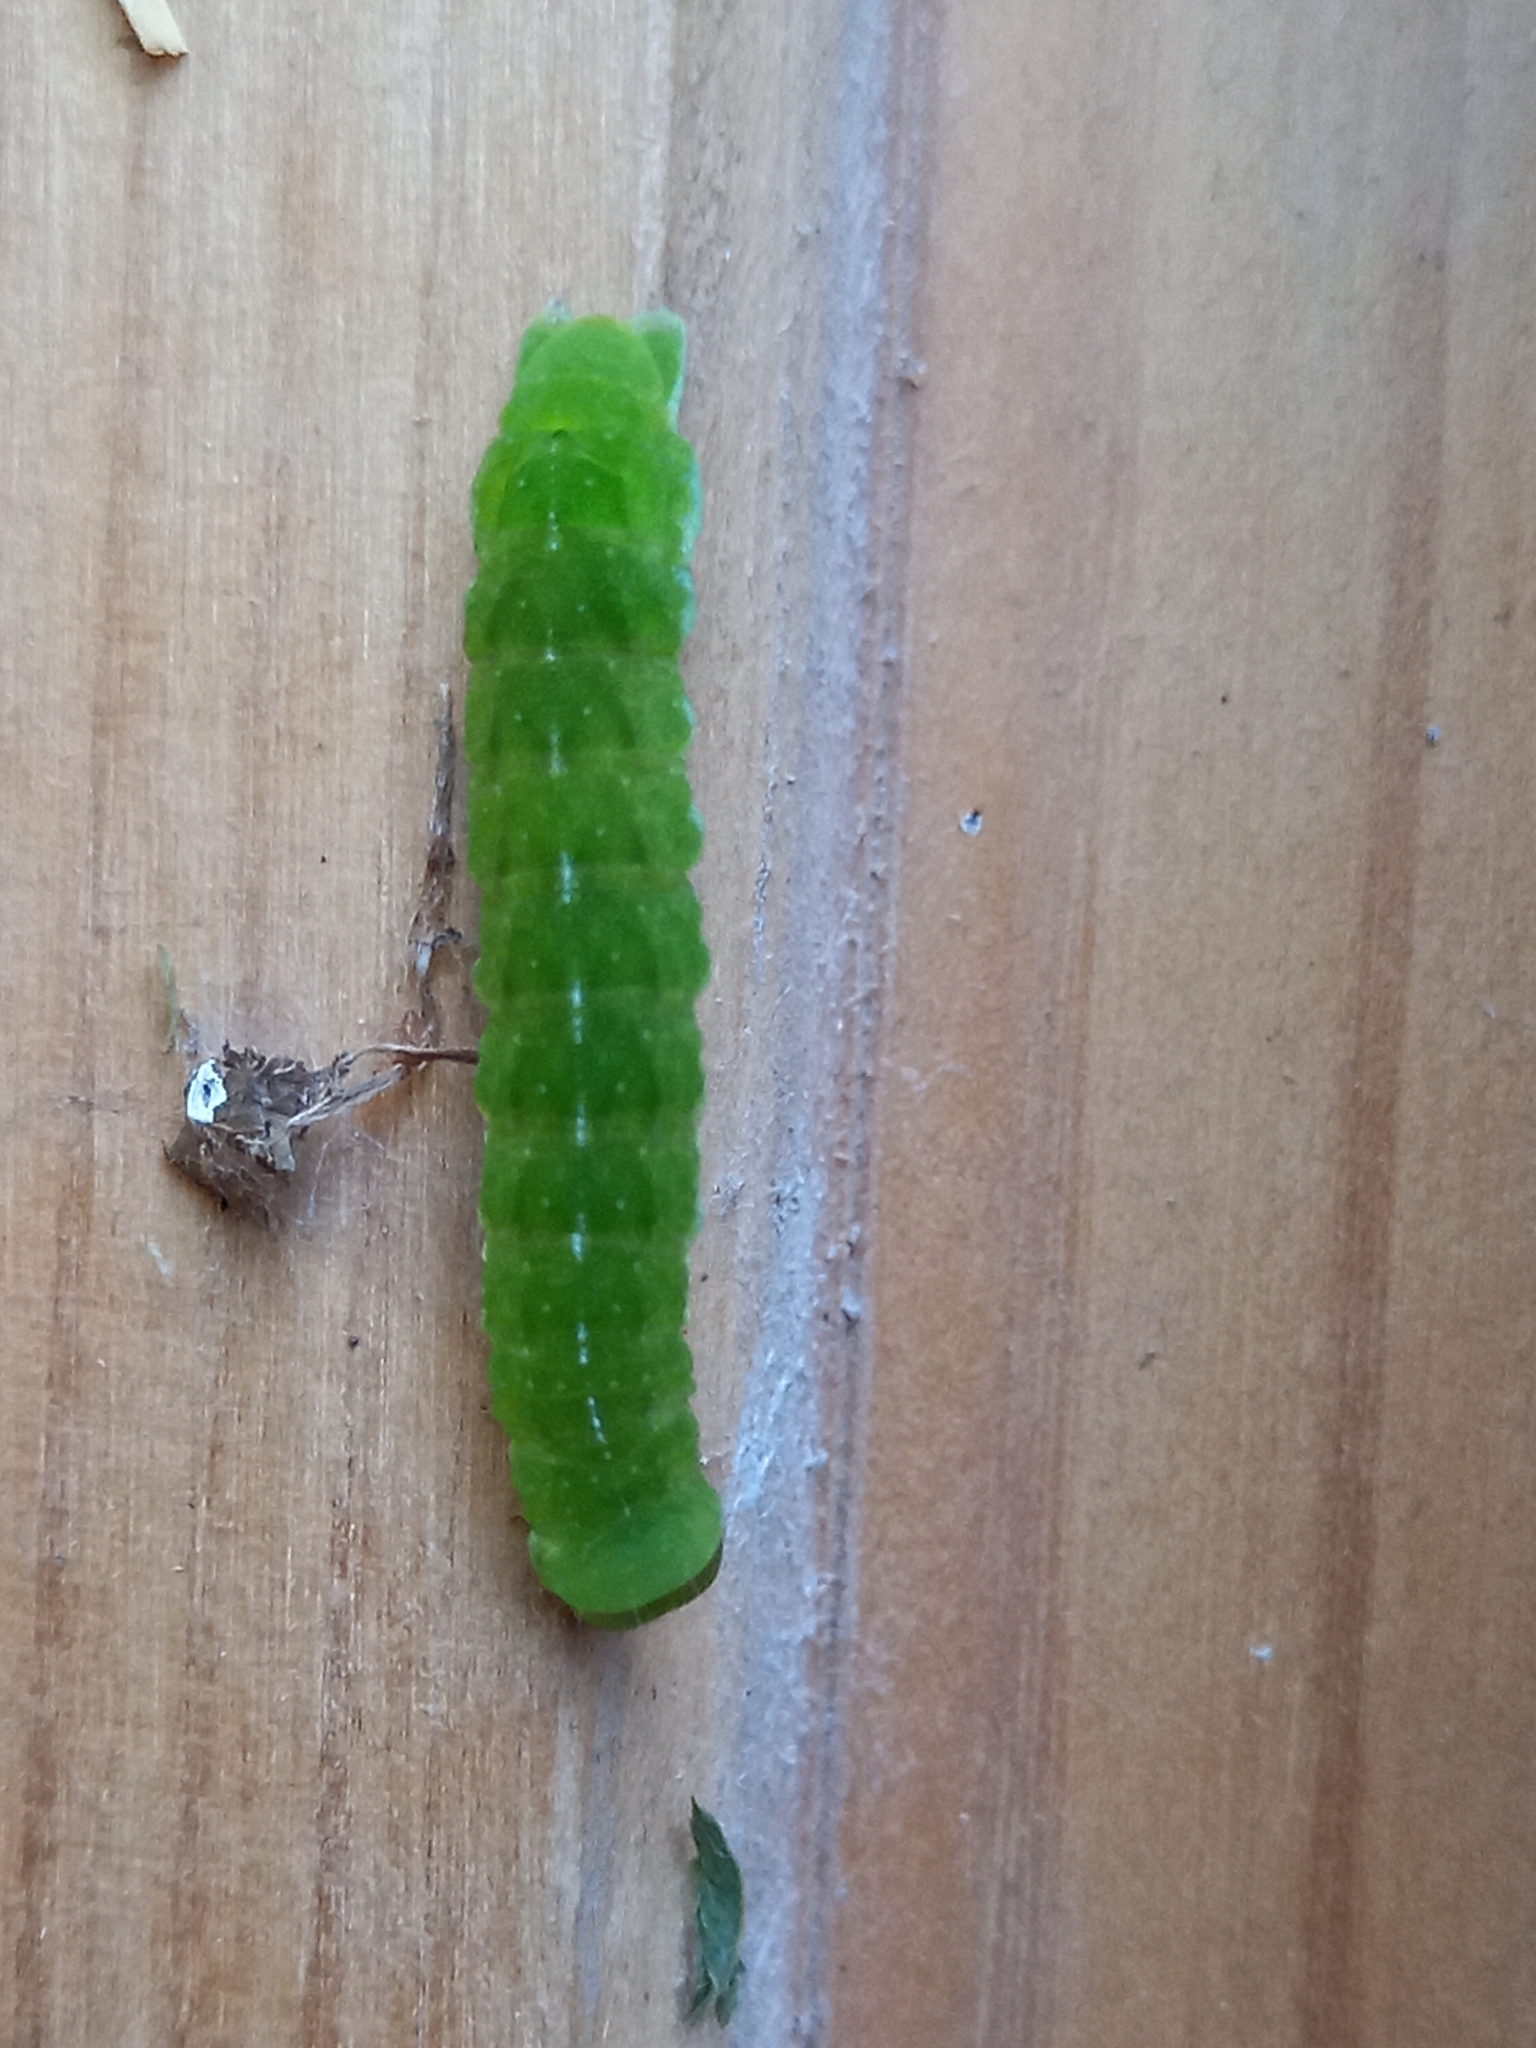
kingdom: Animalia
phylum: Arthropoda
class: Insecta
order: Lepidoptera
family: Noctuidae
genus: Phlogophora
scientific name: Phlogophora meticulosa
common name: Angle shades
